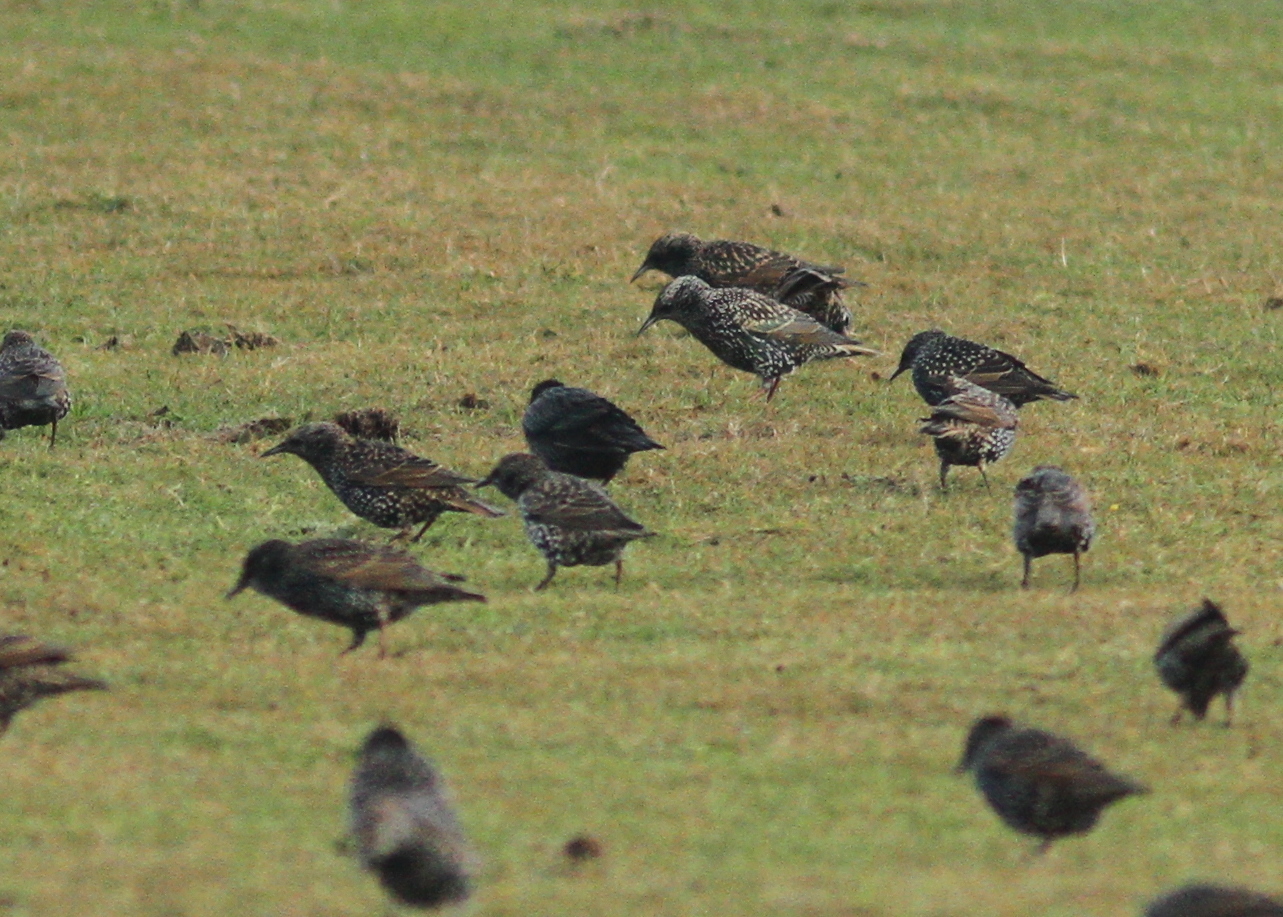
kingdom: Animalia
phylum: Chordata
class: Aves
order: Passeriformes
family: Sturnidae
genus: Sturnus
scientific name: Sturnus unicolor
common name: Spotless starling
